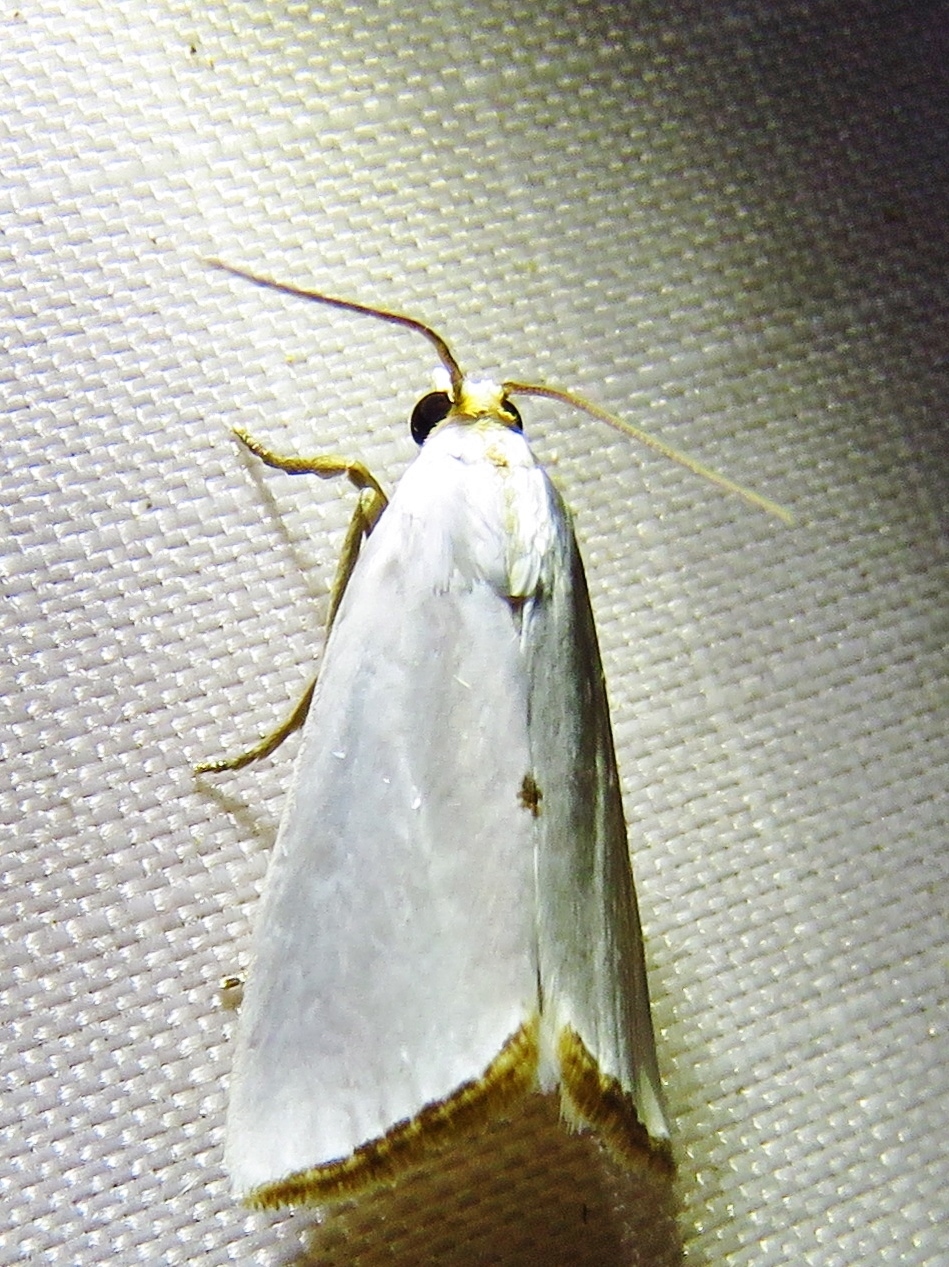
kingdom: Animalia
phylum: Arthropoda
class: Insecta
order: Lepidoptera
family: Crambidae
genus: Argyria
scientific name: Argyria nivalis
